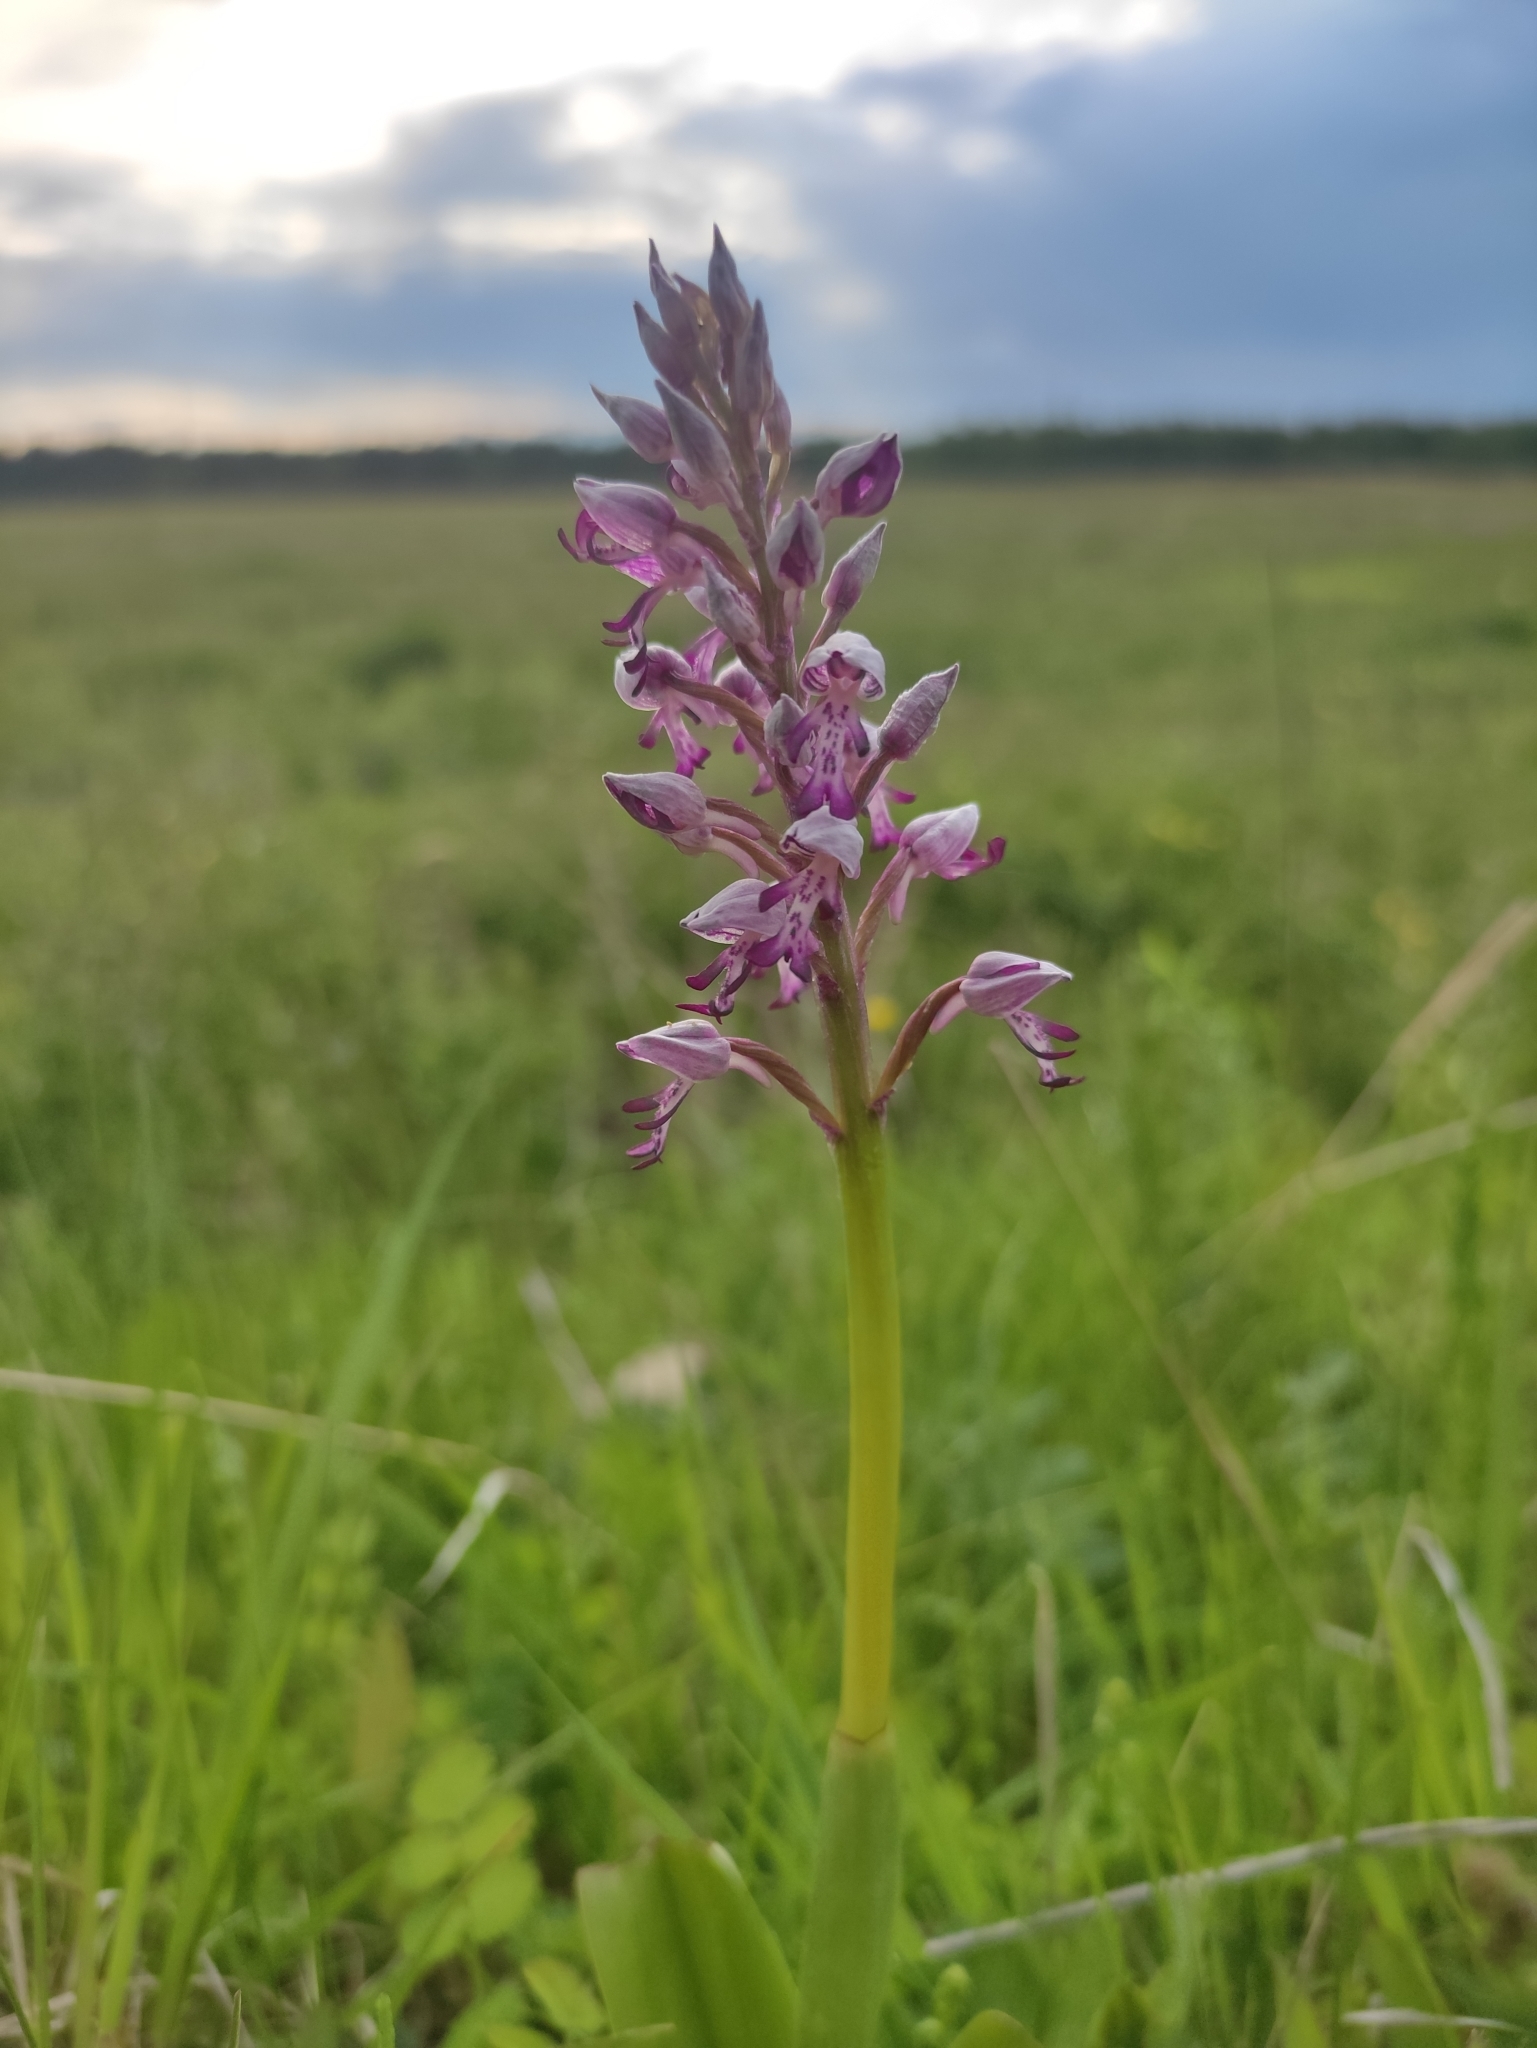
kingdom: Plantae
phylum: Tracheophyta
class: Liliopsida
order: Asparagales
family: Orchidaceae
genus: Orchis
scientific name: Orchis militaris
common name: Military orchid
